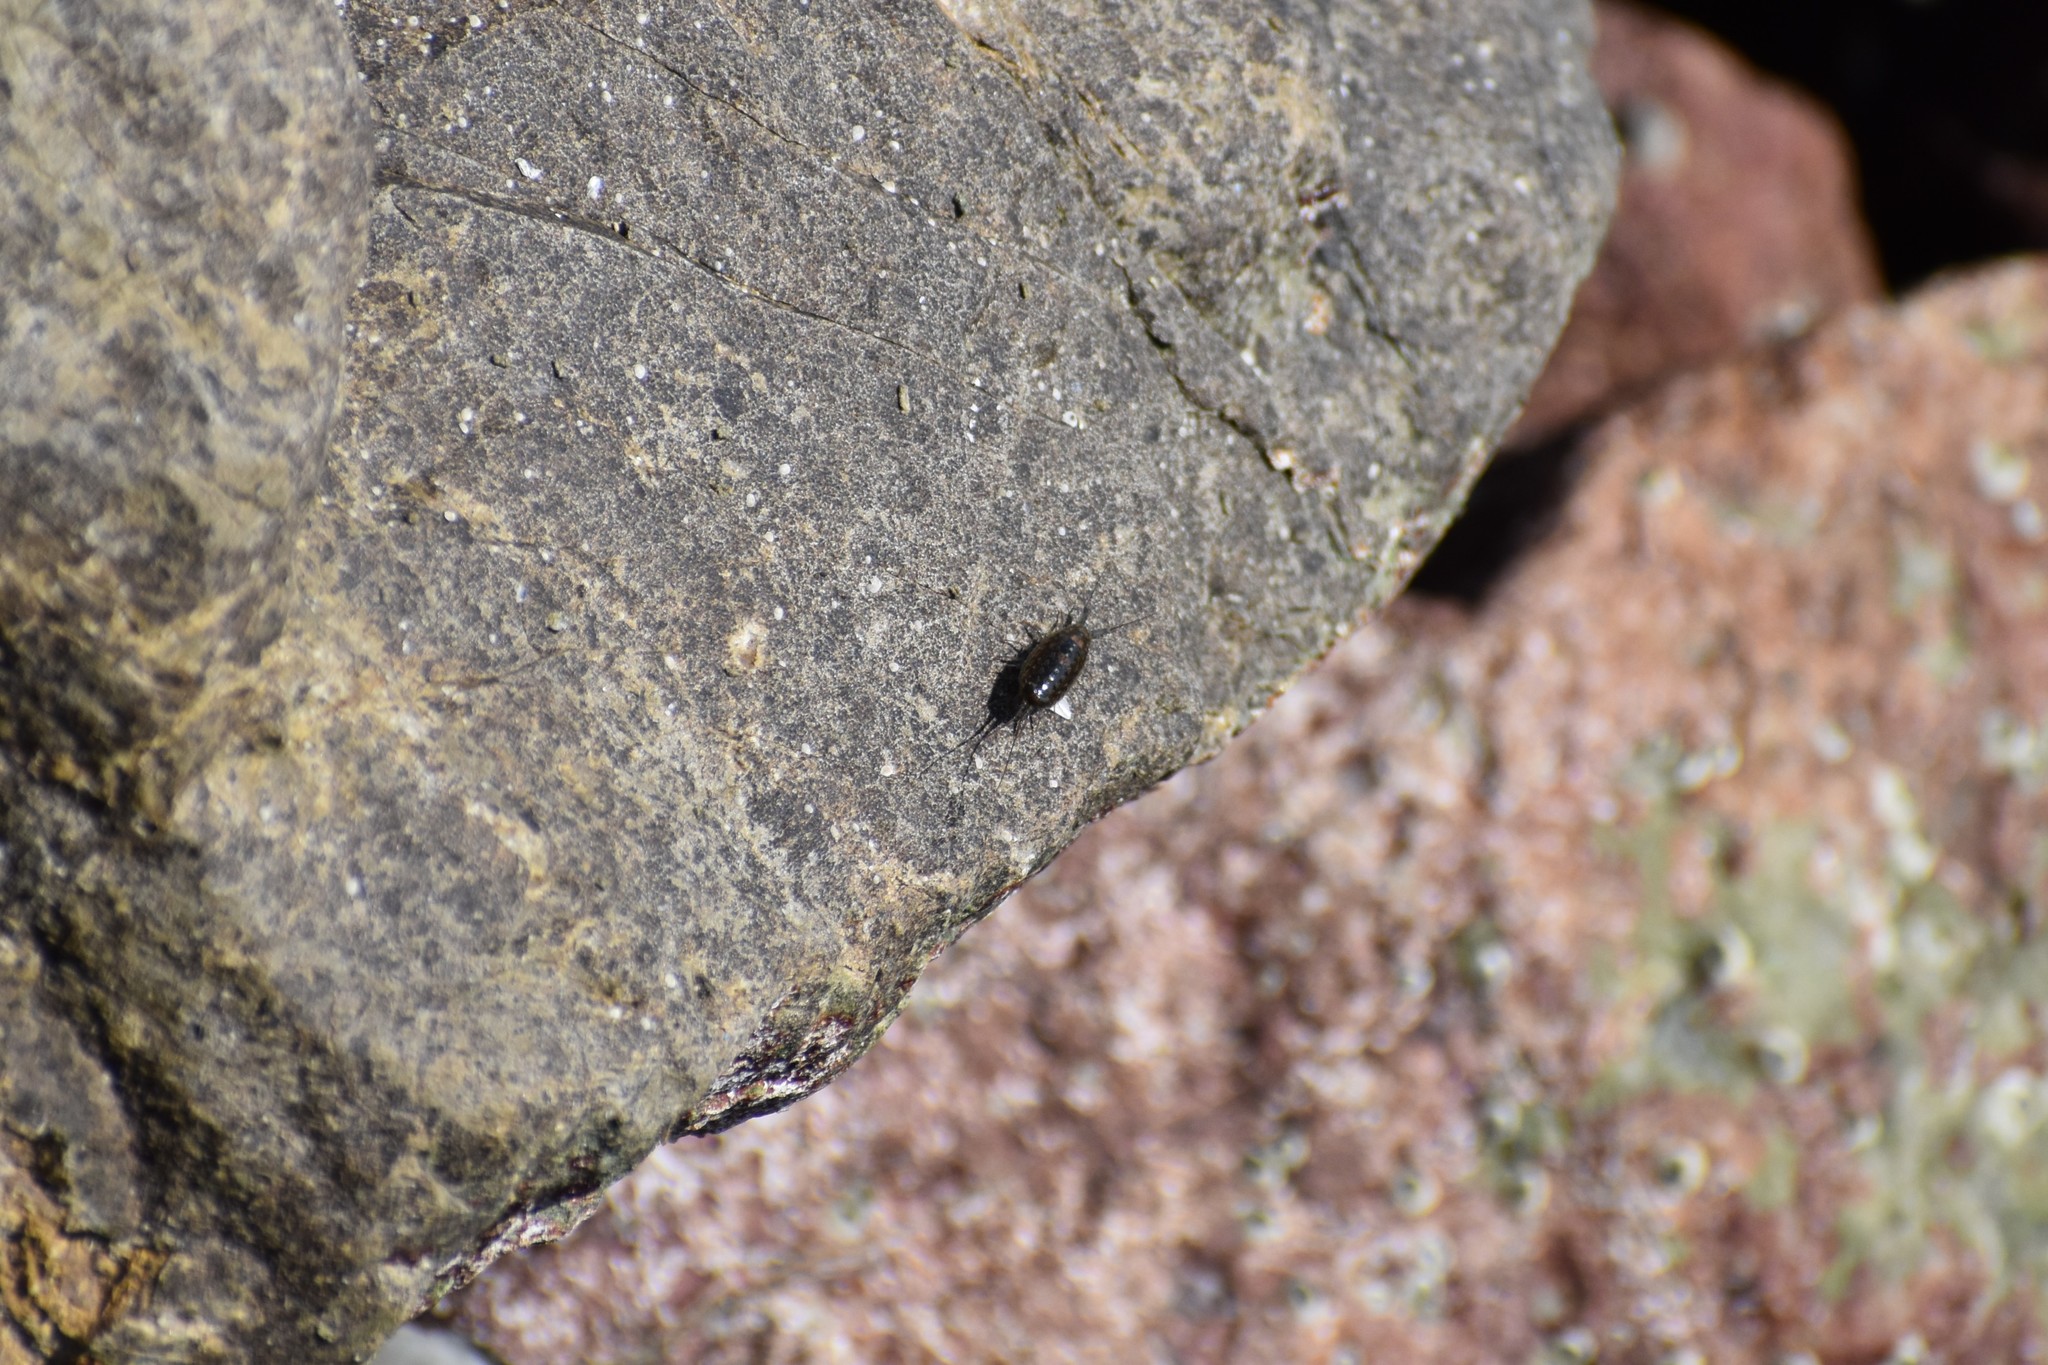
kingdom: Animalia
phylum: Arthropoda
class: Malacostraca
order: Isopoda
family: Ligiidae
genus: Ligia
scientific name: Ligia exotica
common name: Wharf roach
